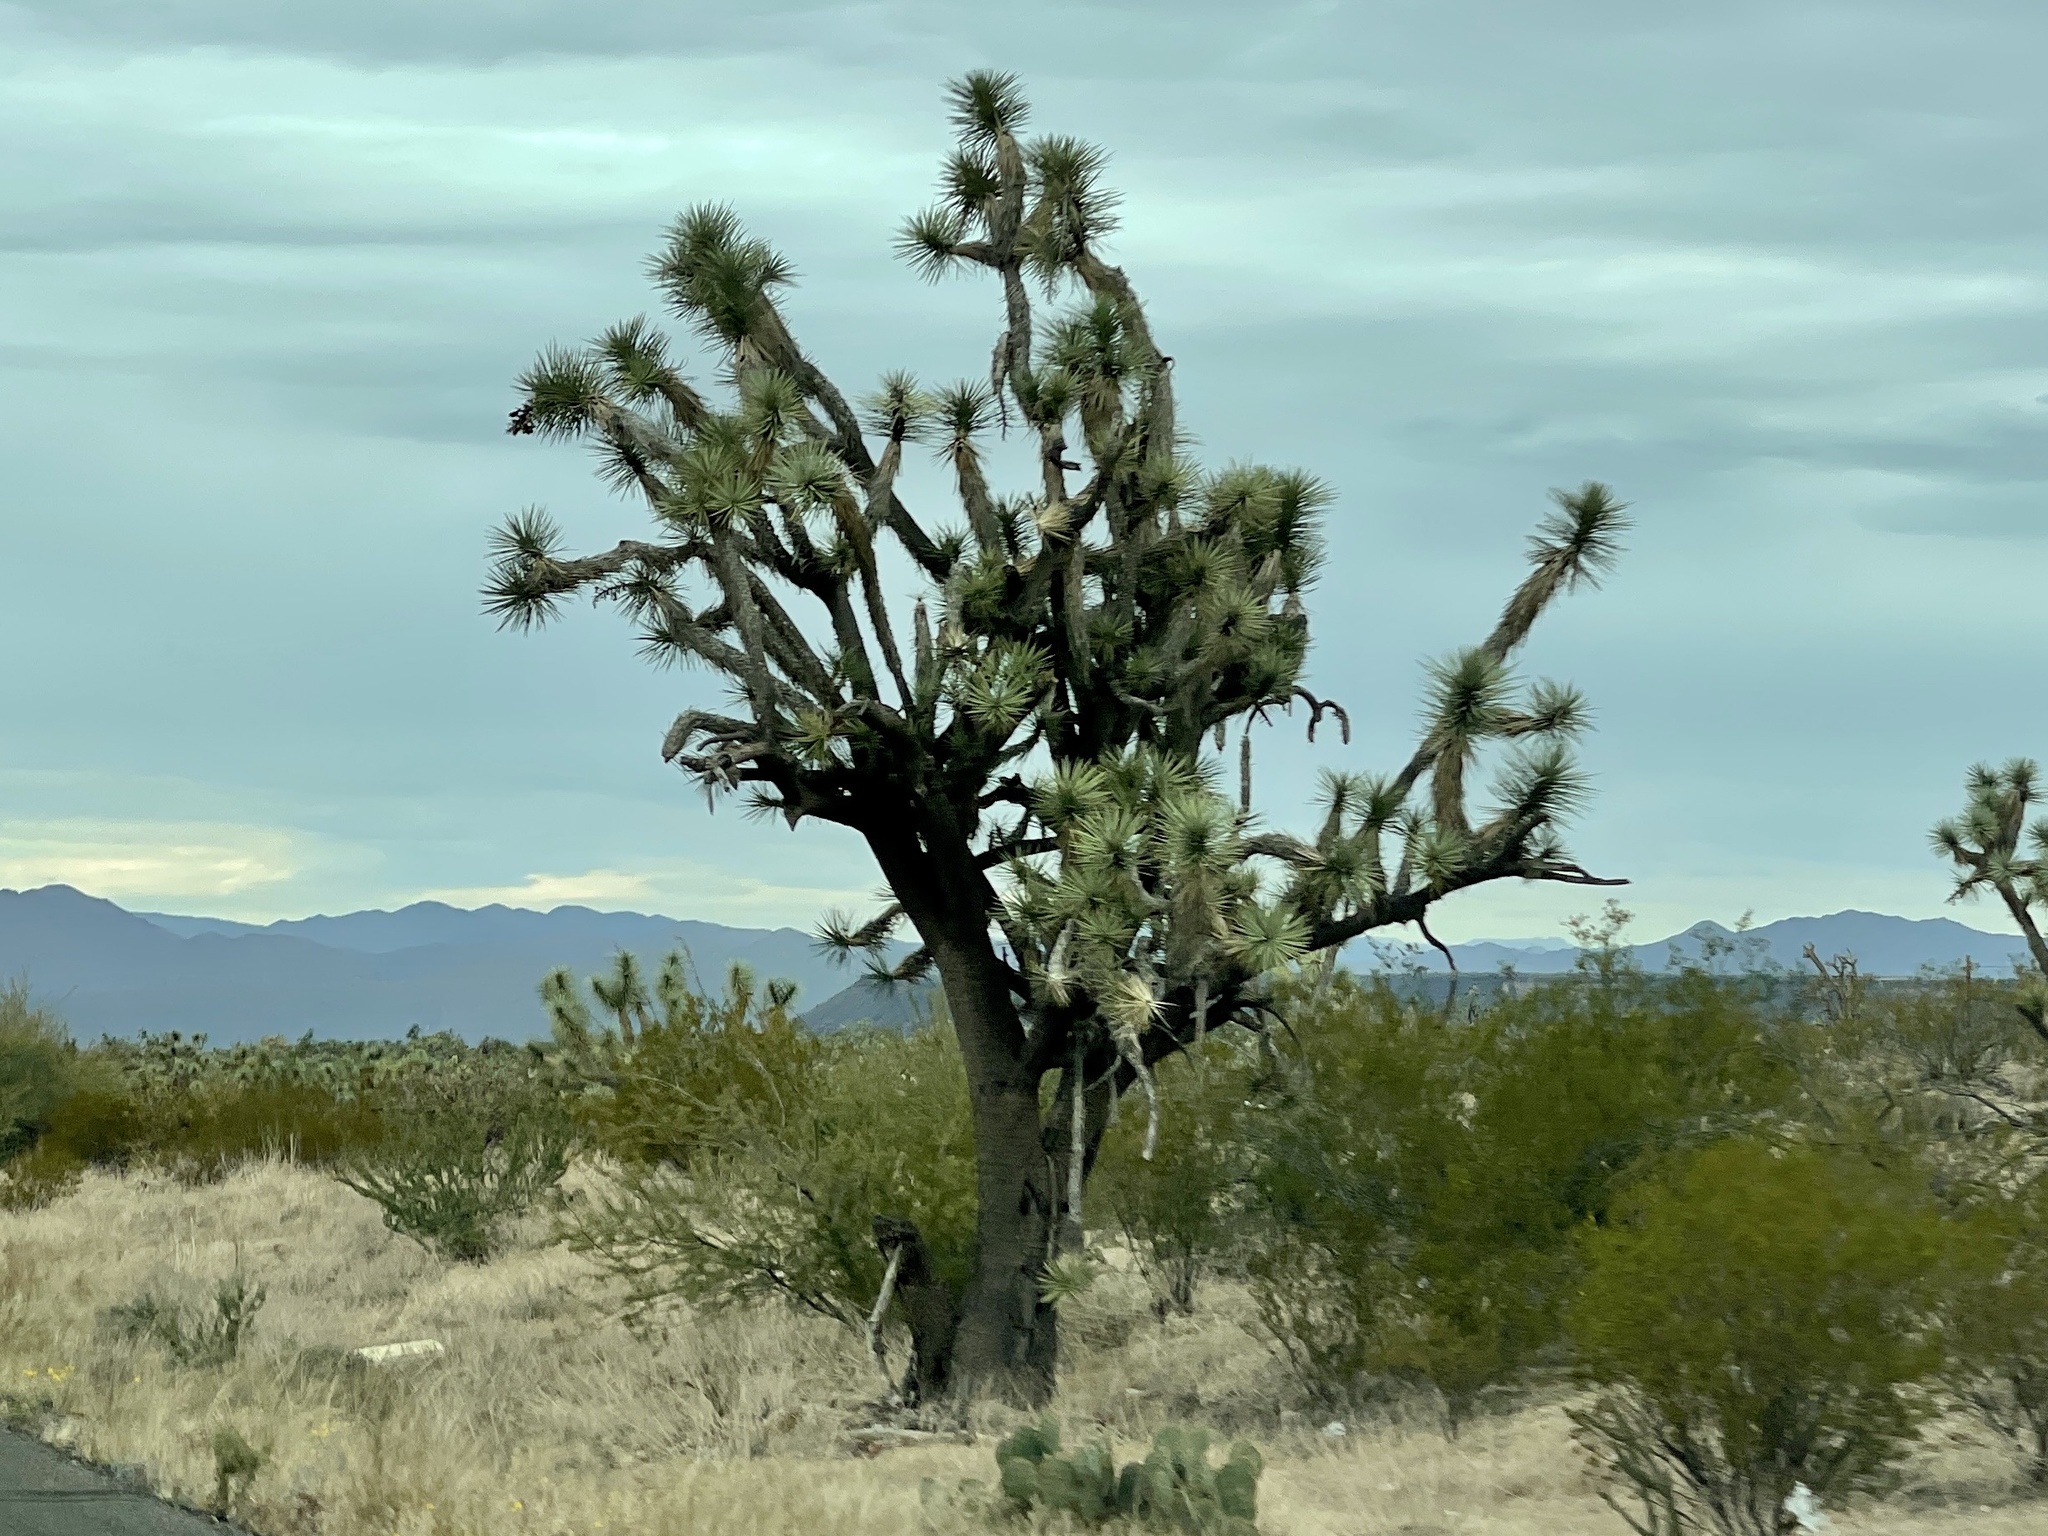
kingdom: Plantae
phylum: Tracheophyta
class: Liliopsida
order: Asparagales
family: Asparagaceae
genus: Yucca
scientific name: Yucca brevifolia
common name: Joshua tree
